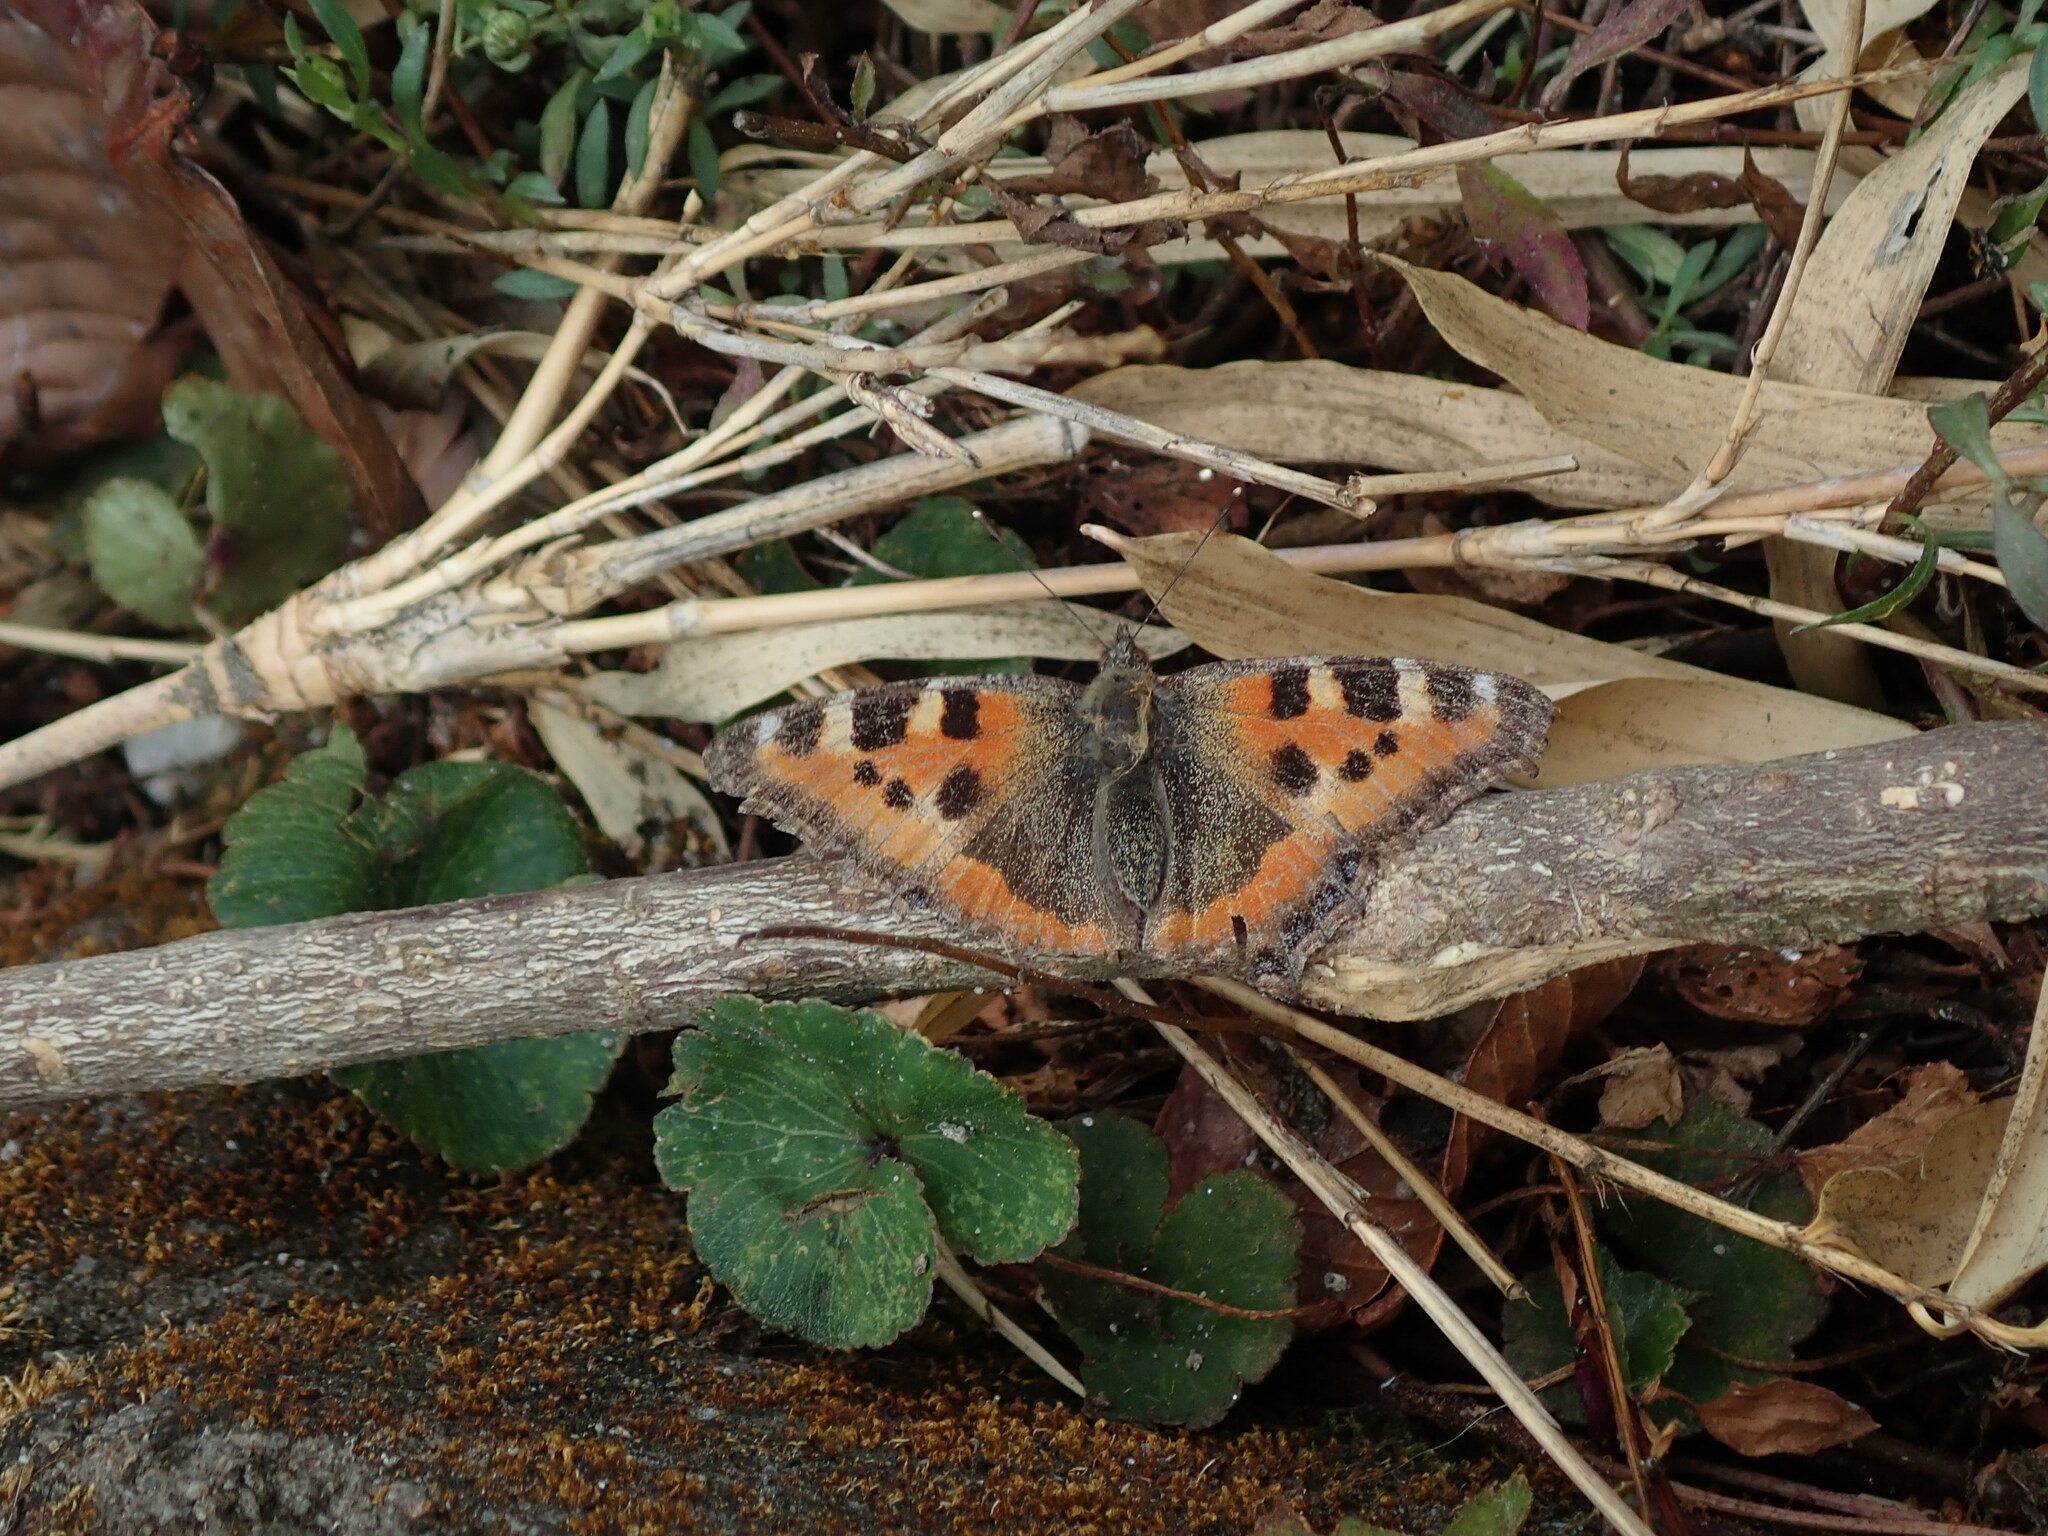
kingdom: Animalia
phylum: Arthropoda
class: Insecta
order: Lepidoptera
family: Nymphalidae
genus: Aglais
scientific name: Aglais caschmirensis
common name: Indian tortoiseshell
